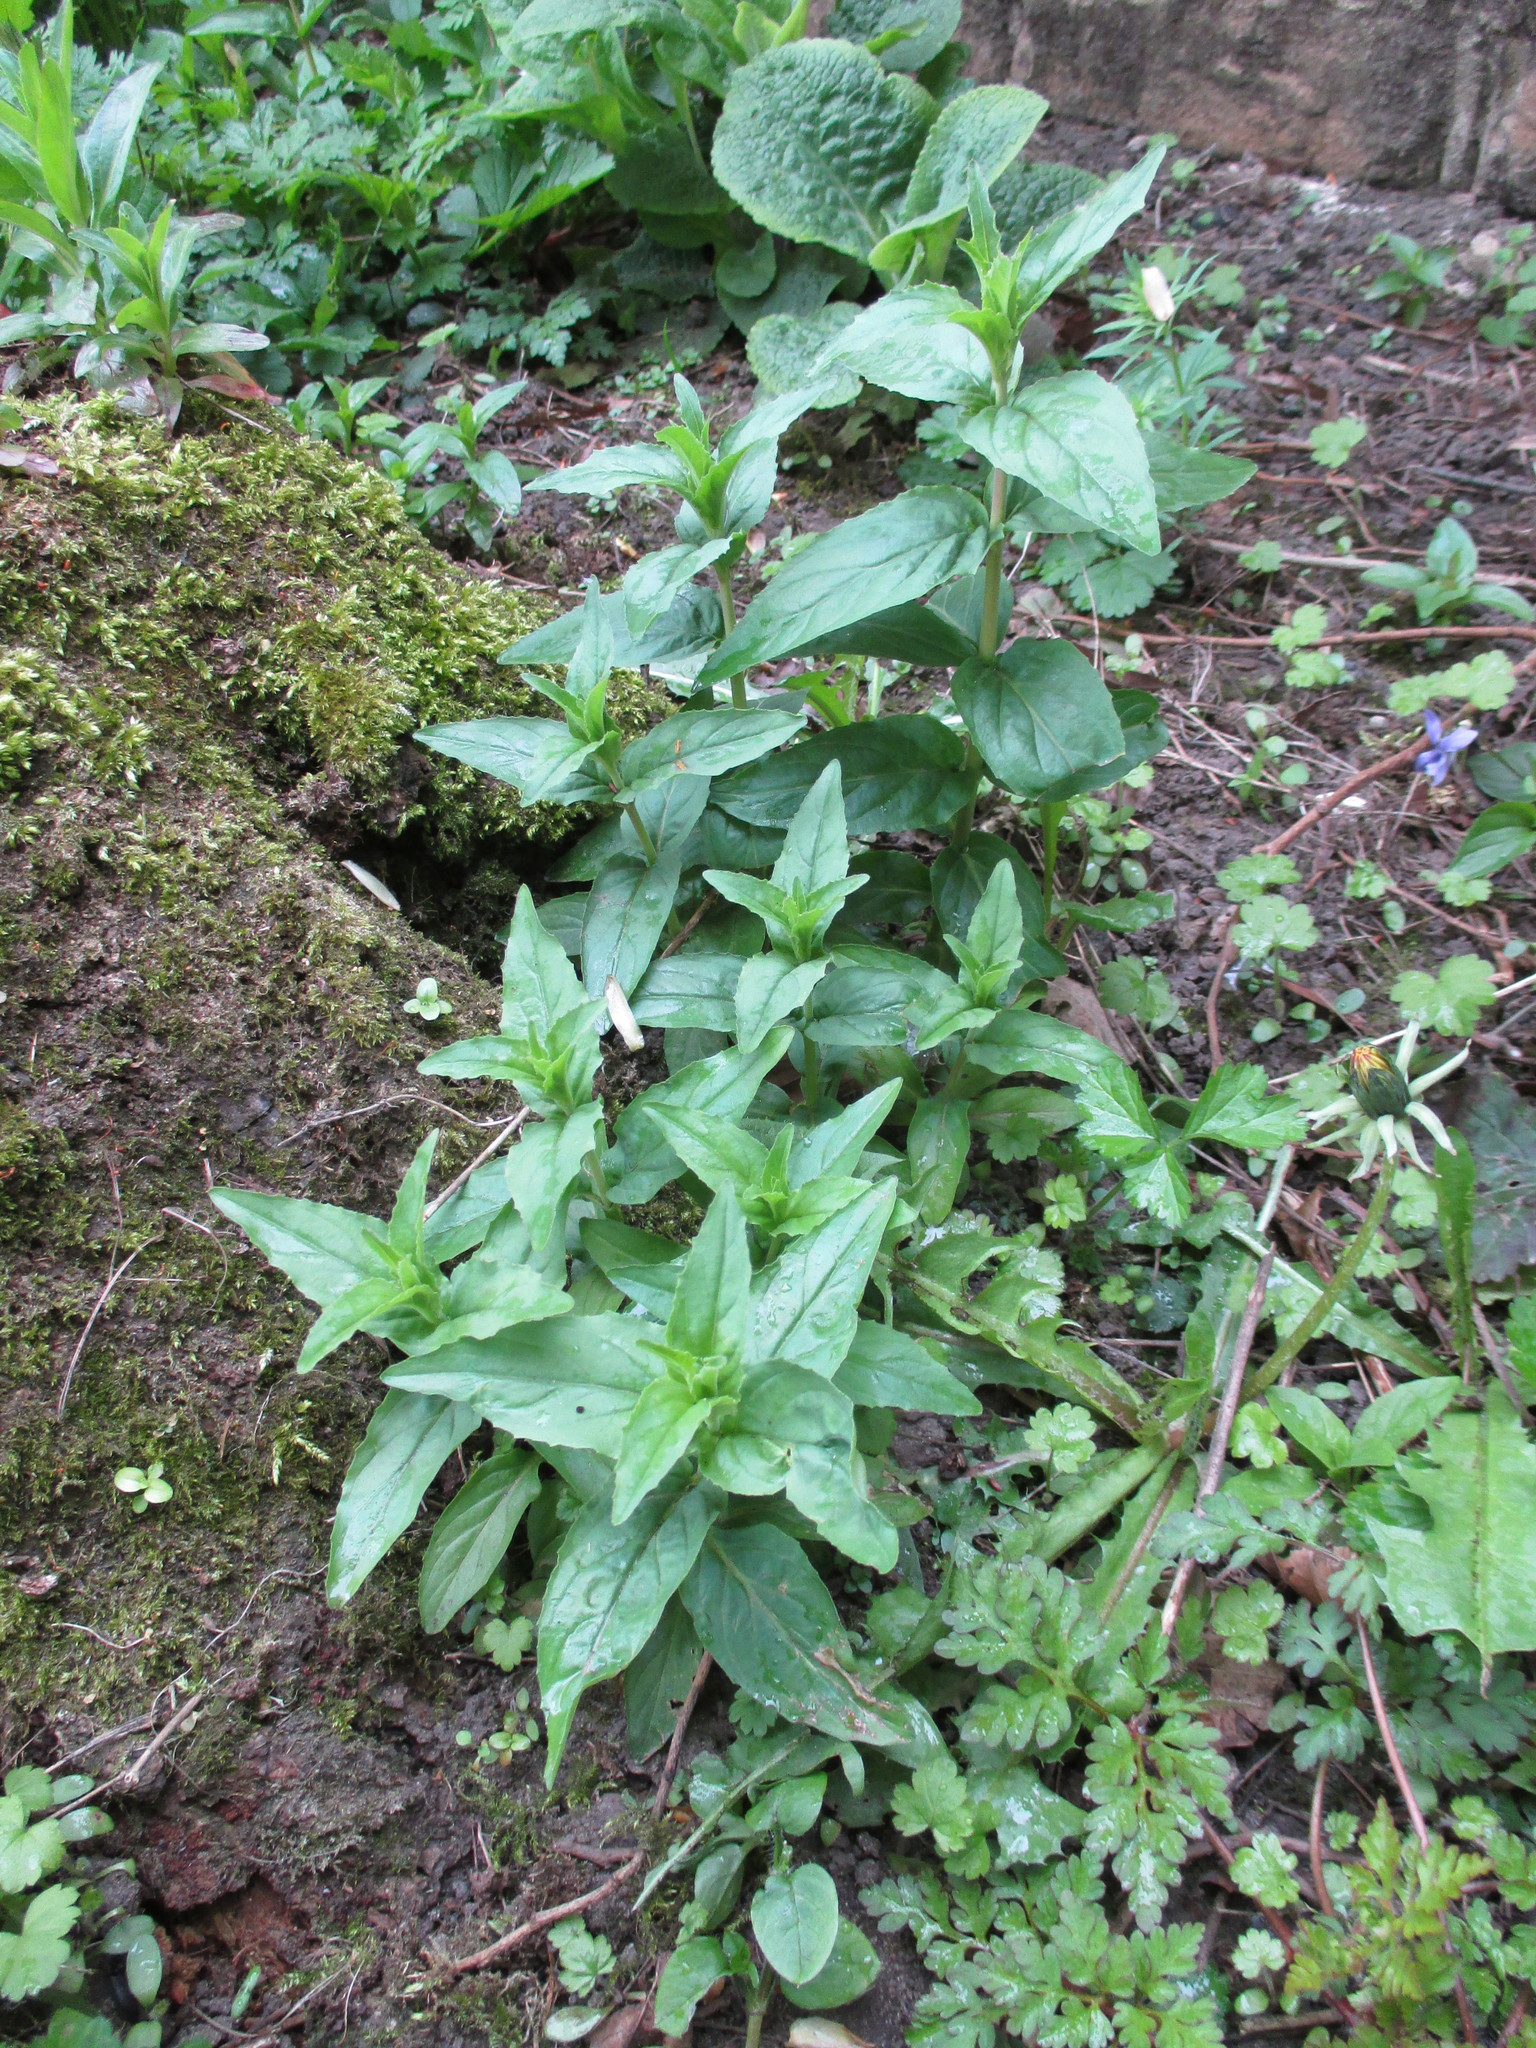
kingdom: Plantae
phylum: Tracheophyta
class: Magnoliopsida
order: Myrtales
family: Onagraceae
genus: Epilobium
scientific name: Epilobium montanum
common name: Broad-leaved willowherb
